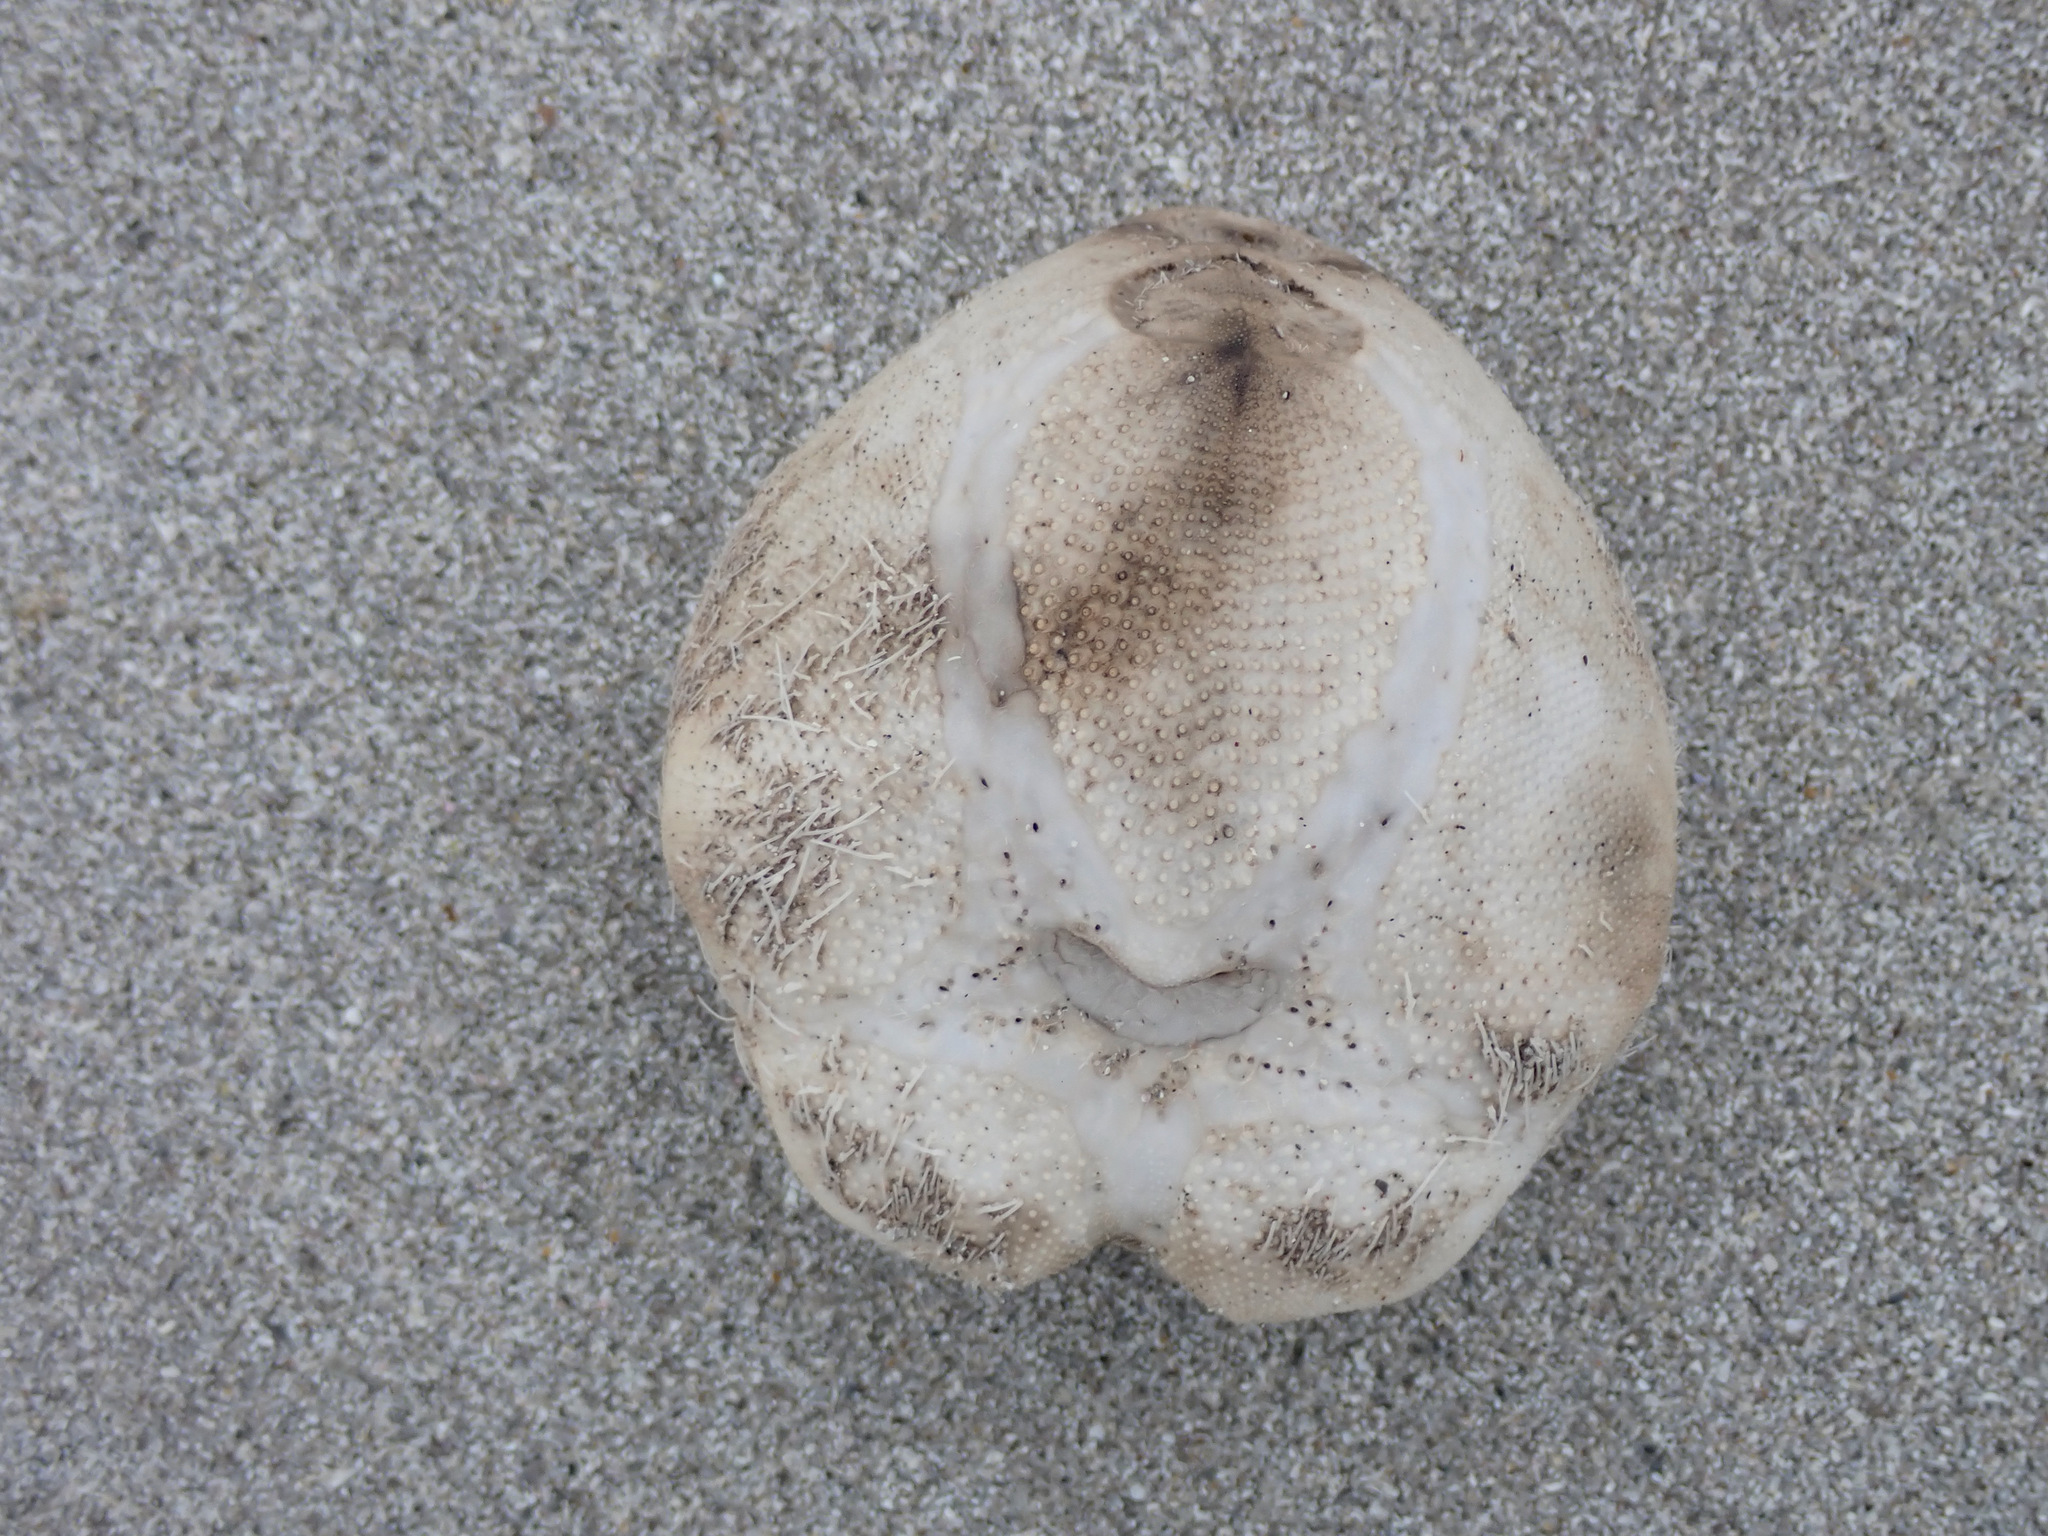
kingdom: Animalia
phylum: Echinodermata
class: Echinoidea
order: Spatangoida
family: Loveniidae
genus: Echinocardium
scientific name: Echinocardium cordatum
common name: Heart-urchin
